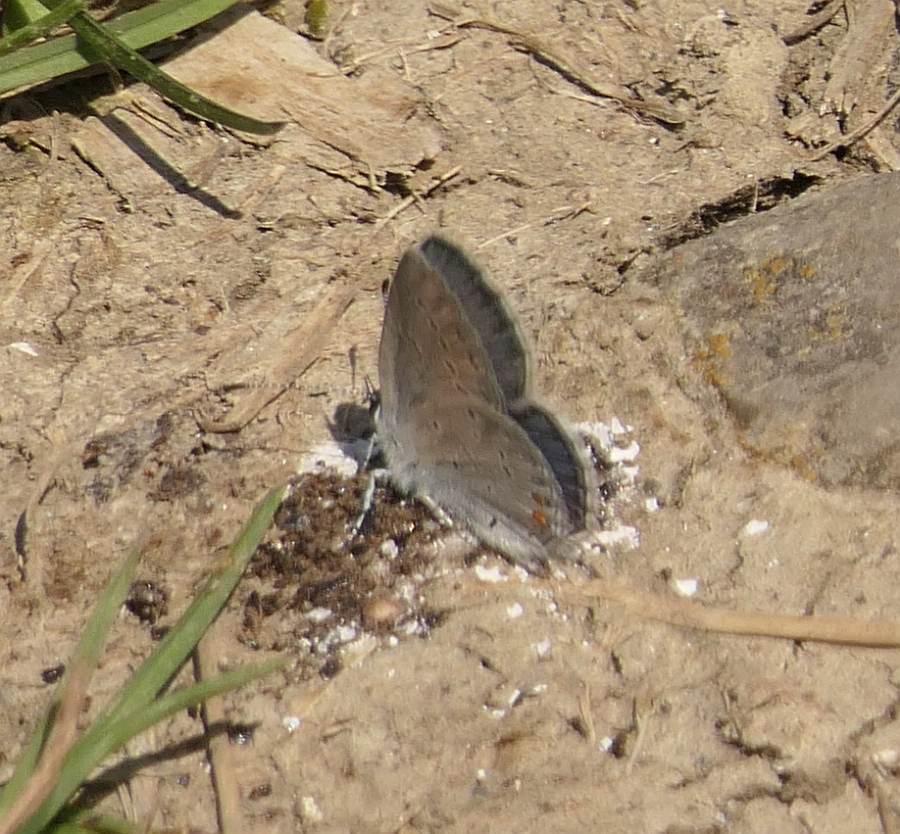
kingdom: Animalia
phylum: Arthropoda
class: Insecta
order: Lepidoptera
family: Lycaenidae
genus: Elkalyce
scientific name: Elkalyce comyntas
